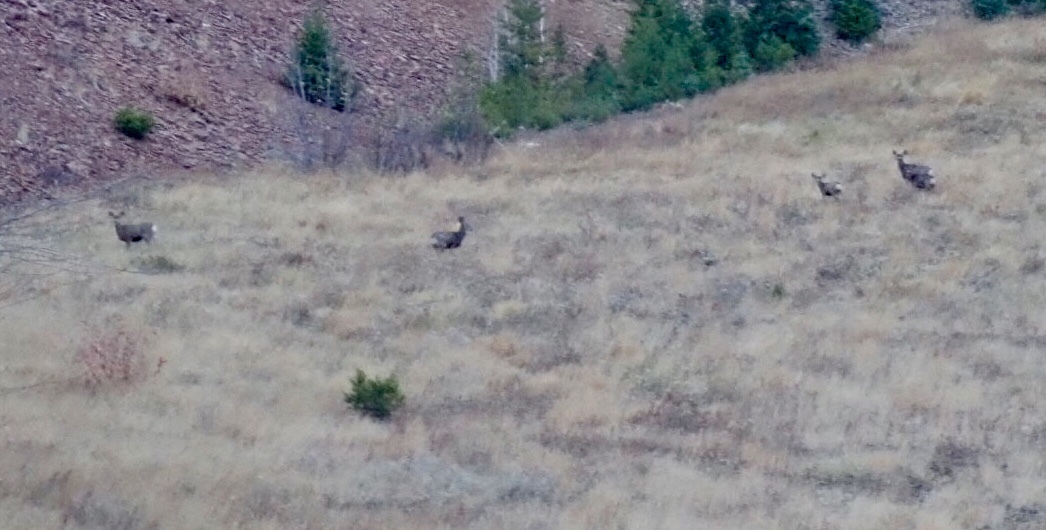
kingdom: Animalia
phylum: Chordata
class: Mammalia
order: Artiodactyla
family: Cervidae
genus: Odocoileus
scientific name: Odocoileus hemionus
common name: Mule deer
